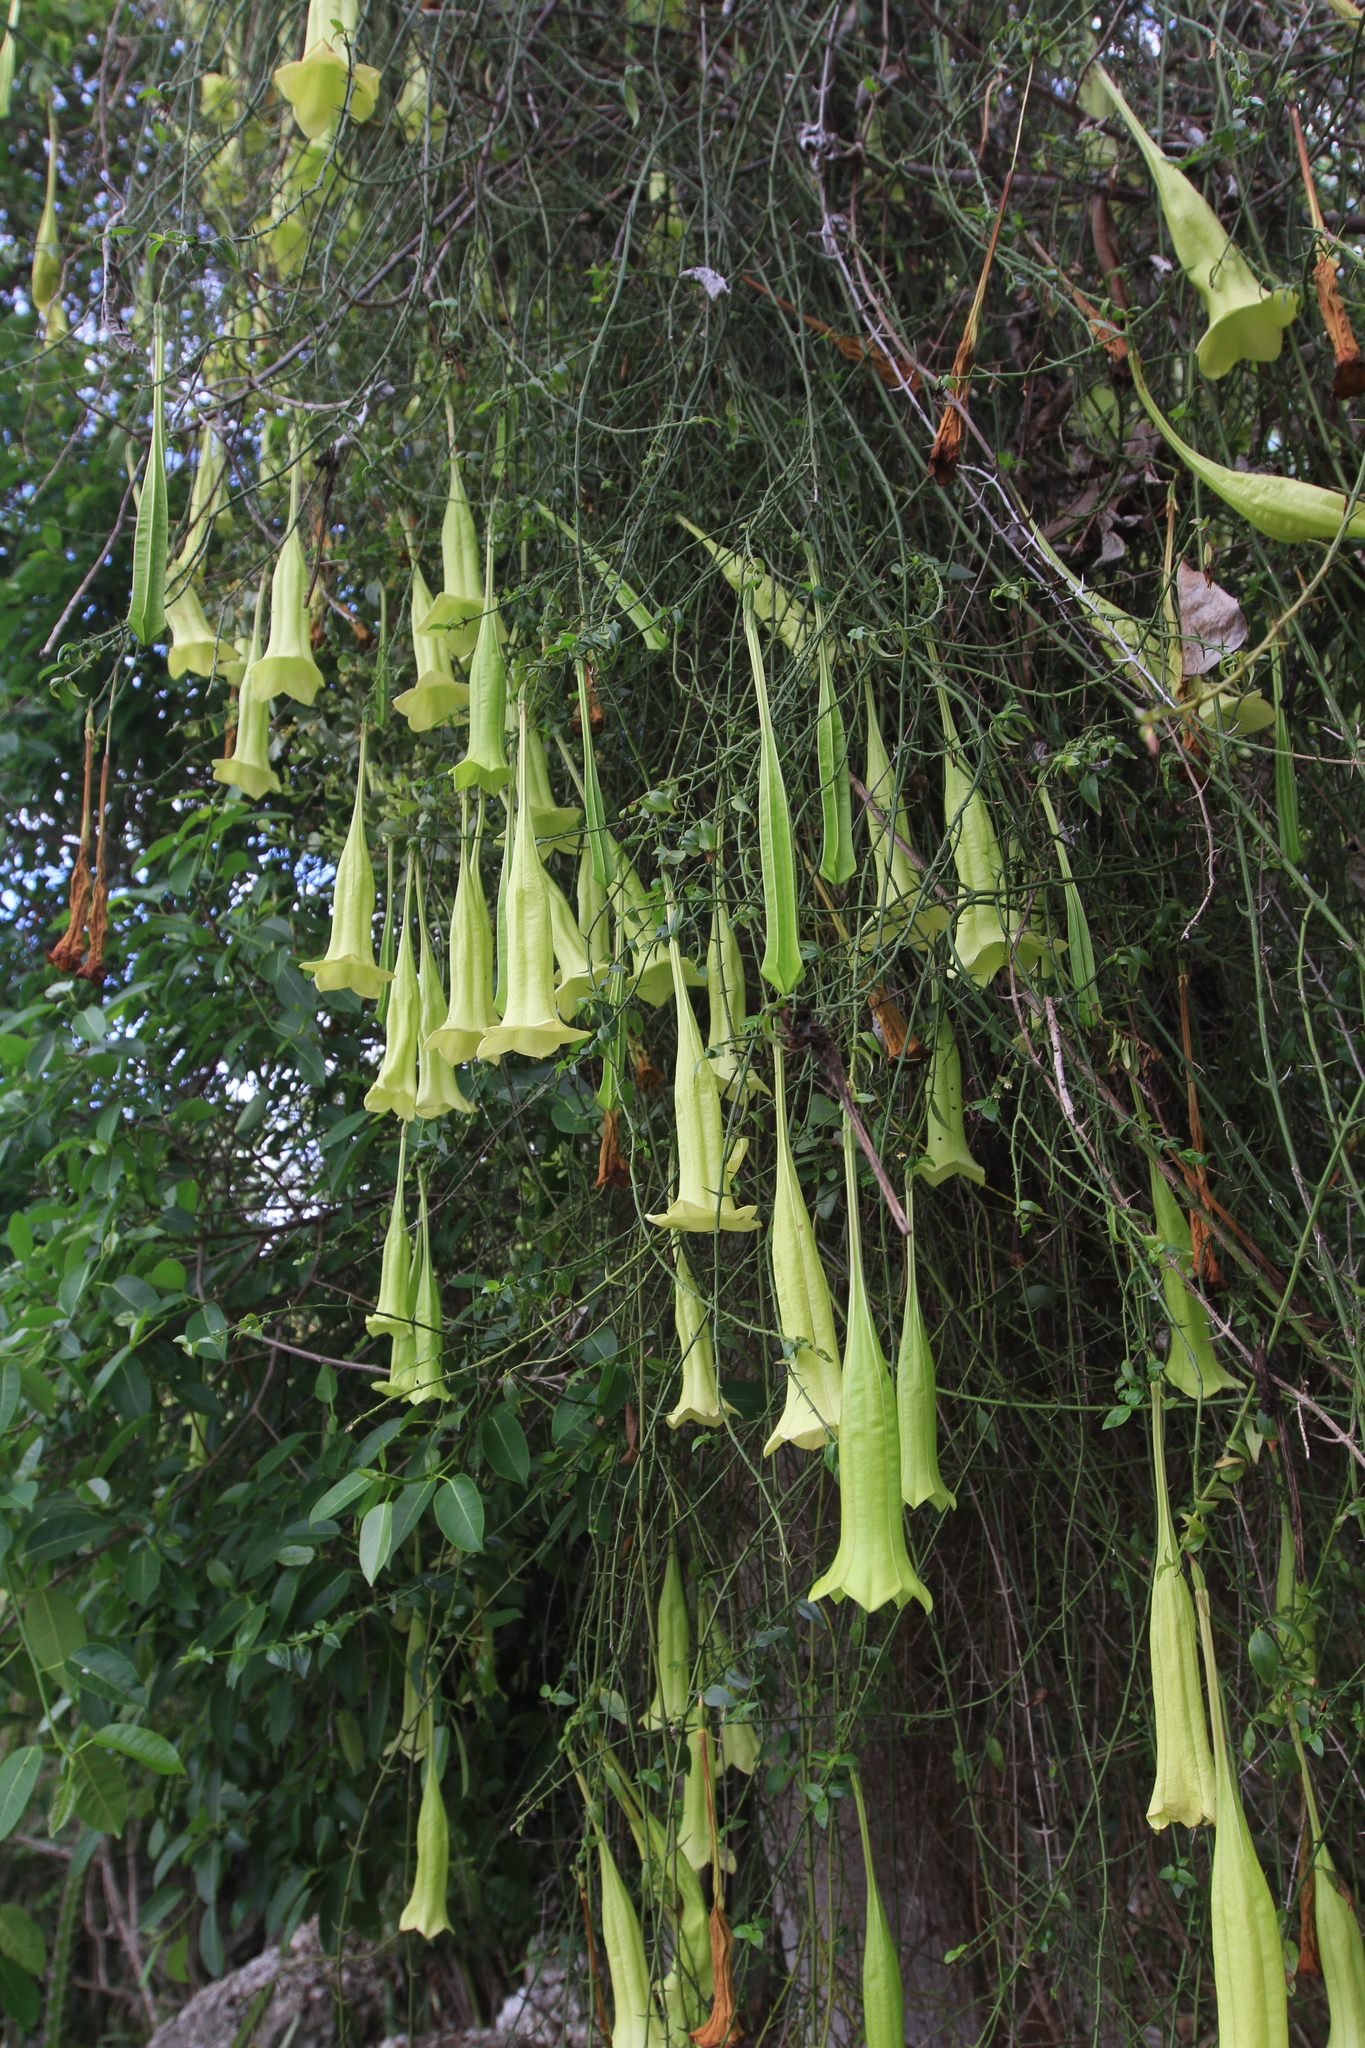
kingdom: Plantae
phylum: Tracheophyta
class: Magnoliopsida
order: Gentianales
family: Rubiaceae
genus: Catesbaea
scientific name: Catesbaea ekmaniana
